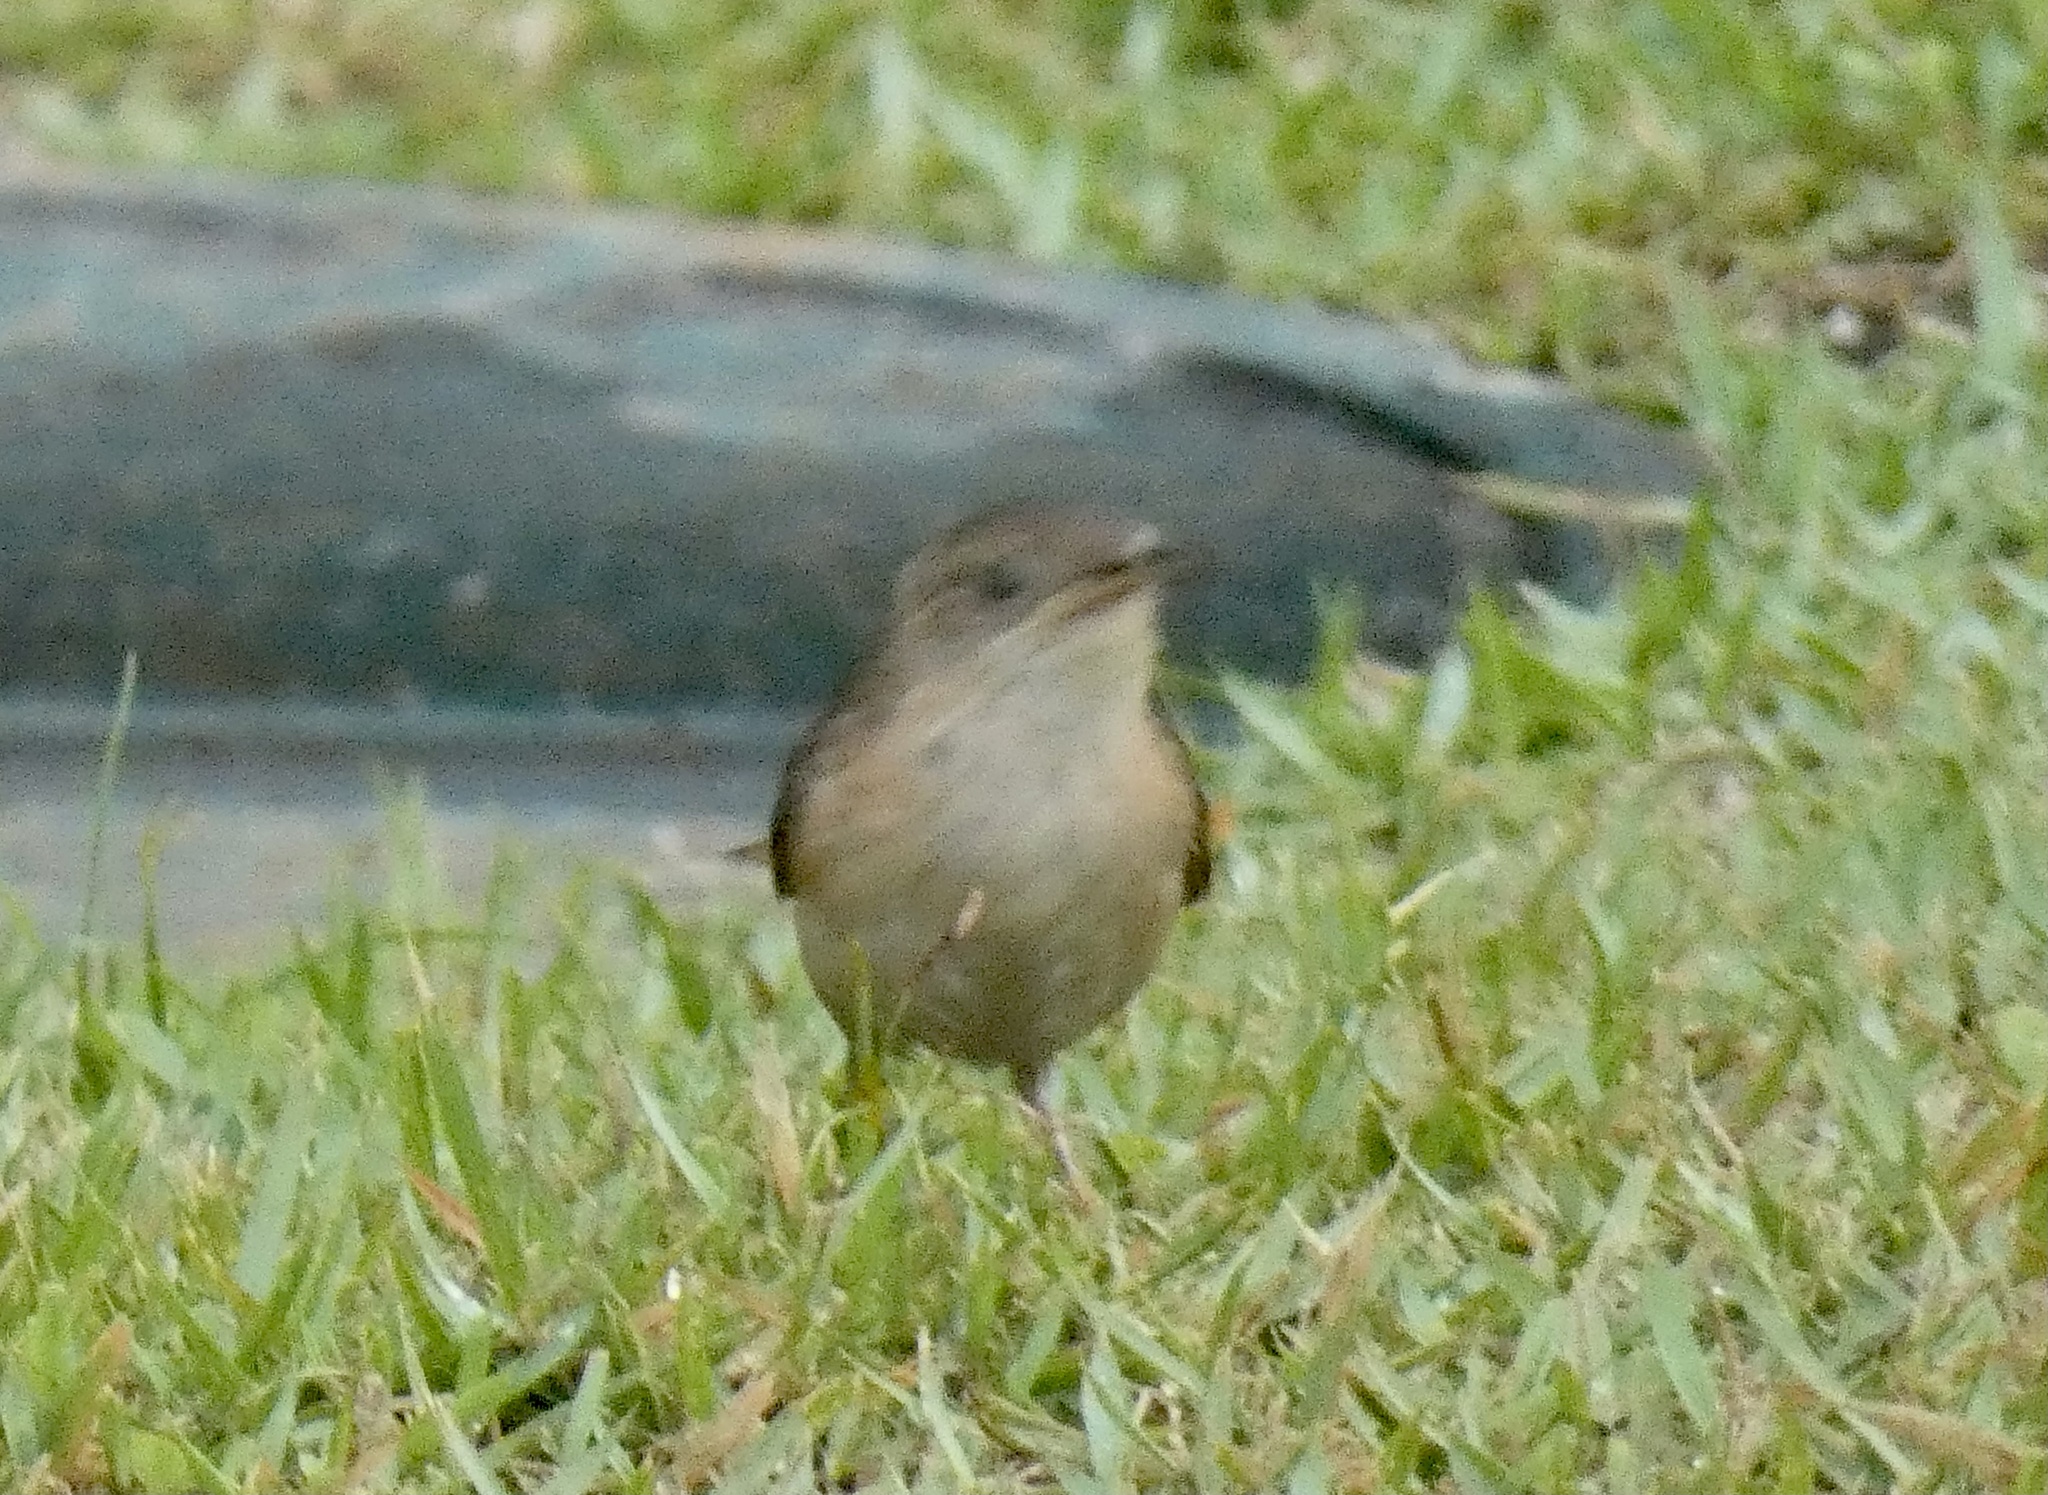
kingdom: Animalia
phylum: Chordata
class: Aves
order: Passeriformes
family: Troglodytidae
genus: Troglodytes
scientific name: Troglodytes aedon
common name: House wren
